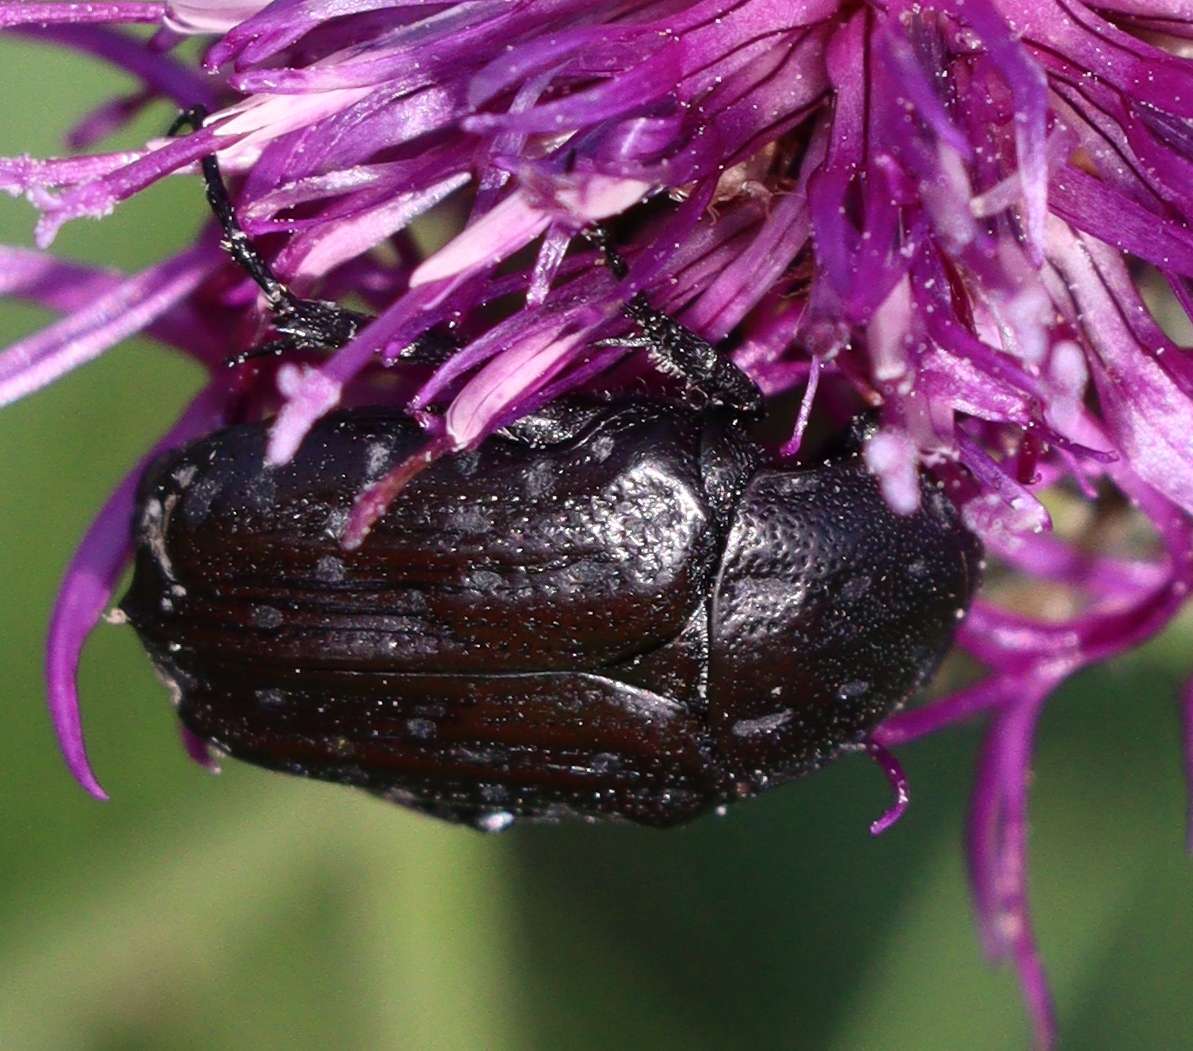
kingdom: Animalia
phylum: Arthropoda
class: Insecta
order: Coleoptera
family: Scarabaeidae
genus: Oxythyrea
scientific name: Oxythyrea funesta
